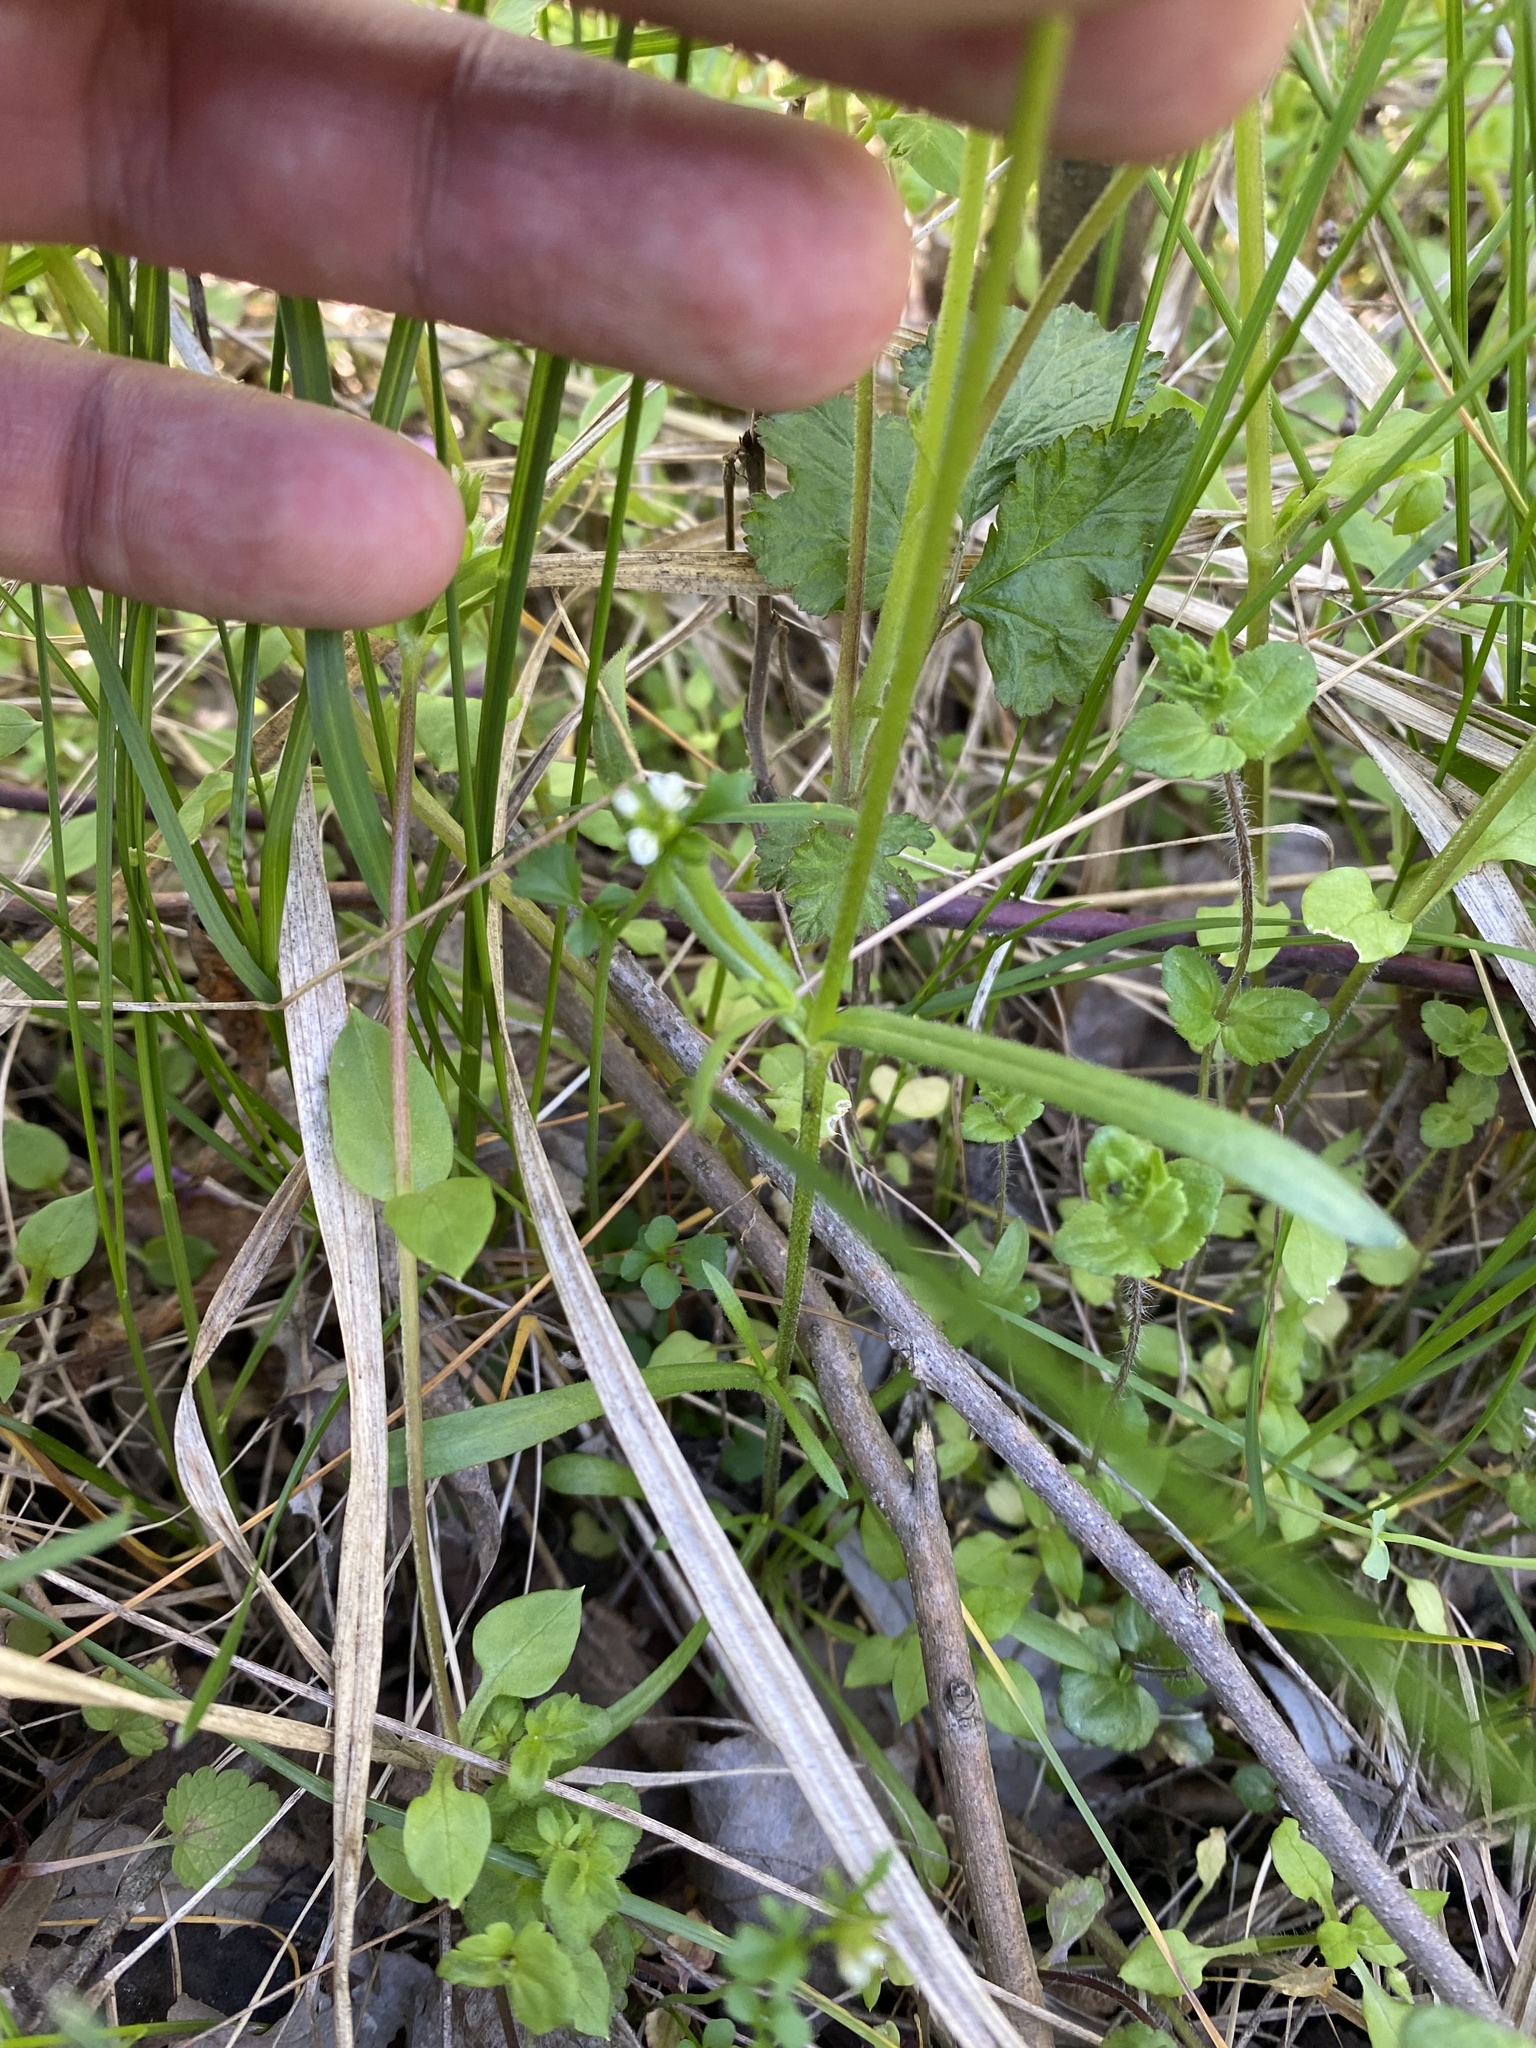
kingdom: Plantae
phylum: Tracheophyta
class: Magnoliopsida
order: Caryophyllales
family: Caryophyllaceae
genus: Dichodon
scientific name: Dichodon viscidum
